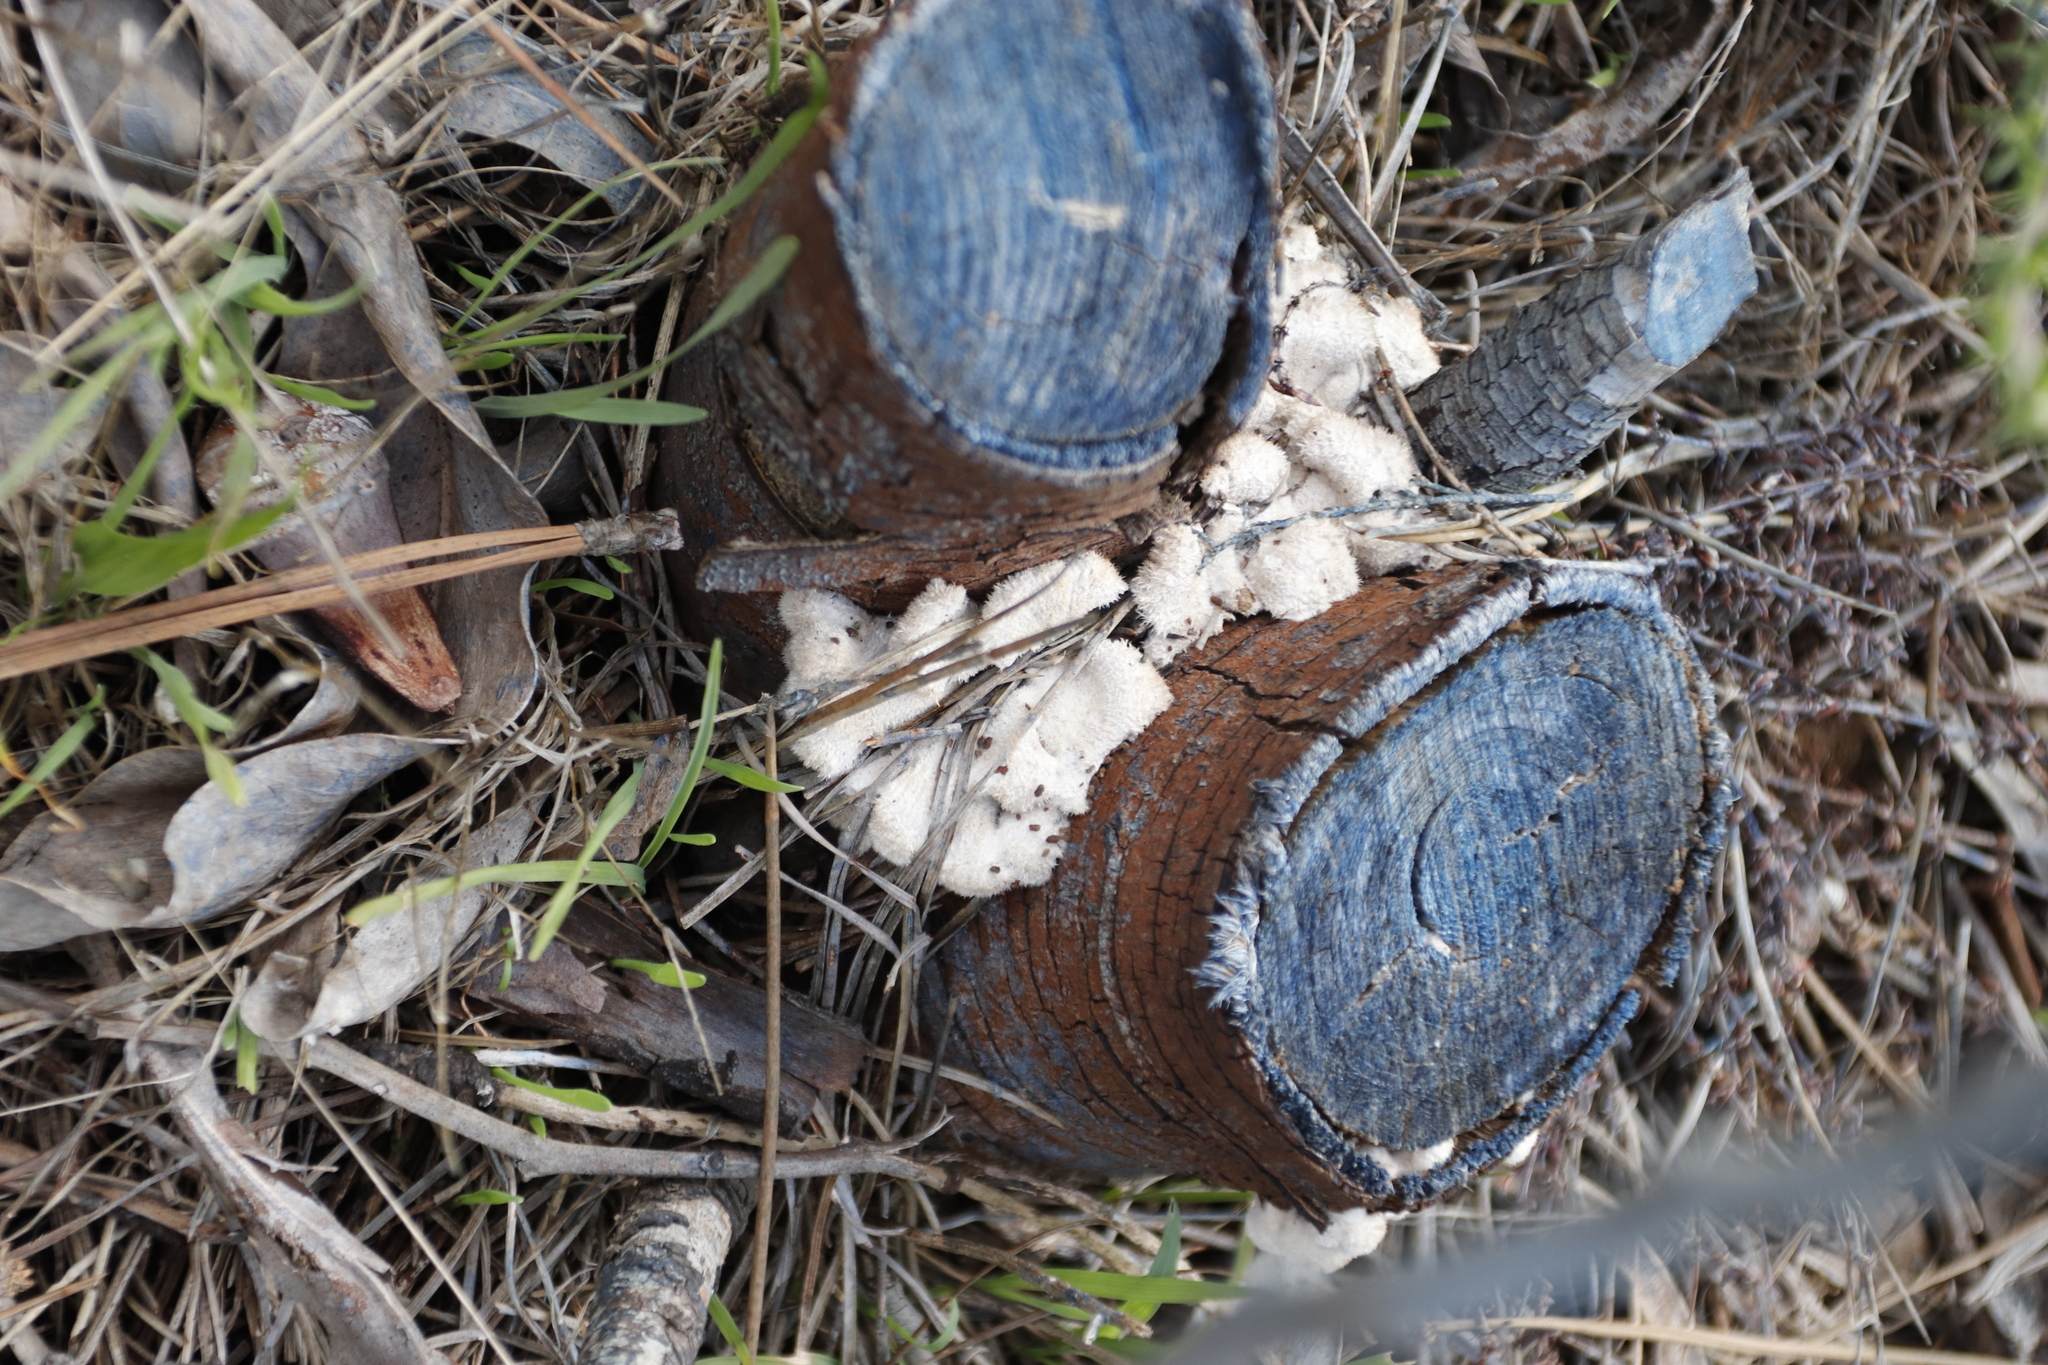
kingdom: Fungi
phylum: Basidiomycota
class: Agaricomycetes
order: Agaricales
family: Schizophyllaceae
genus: Schizophyllum
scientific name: Schizophyllum commune
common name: Common porecrust
